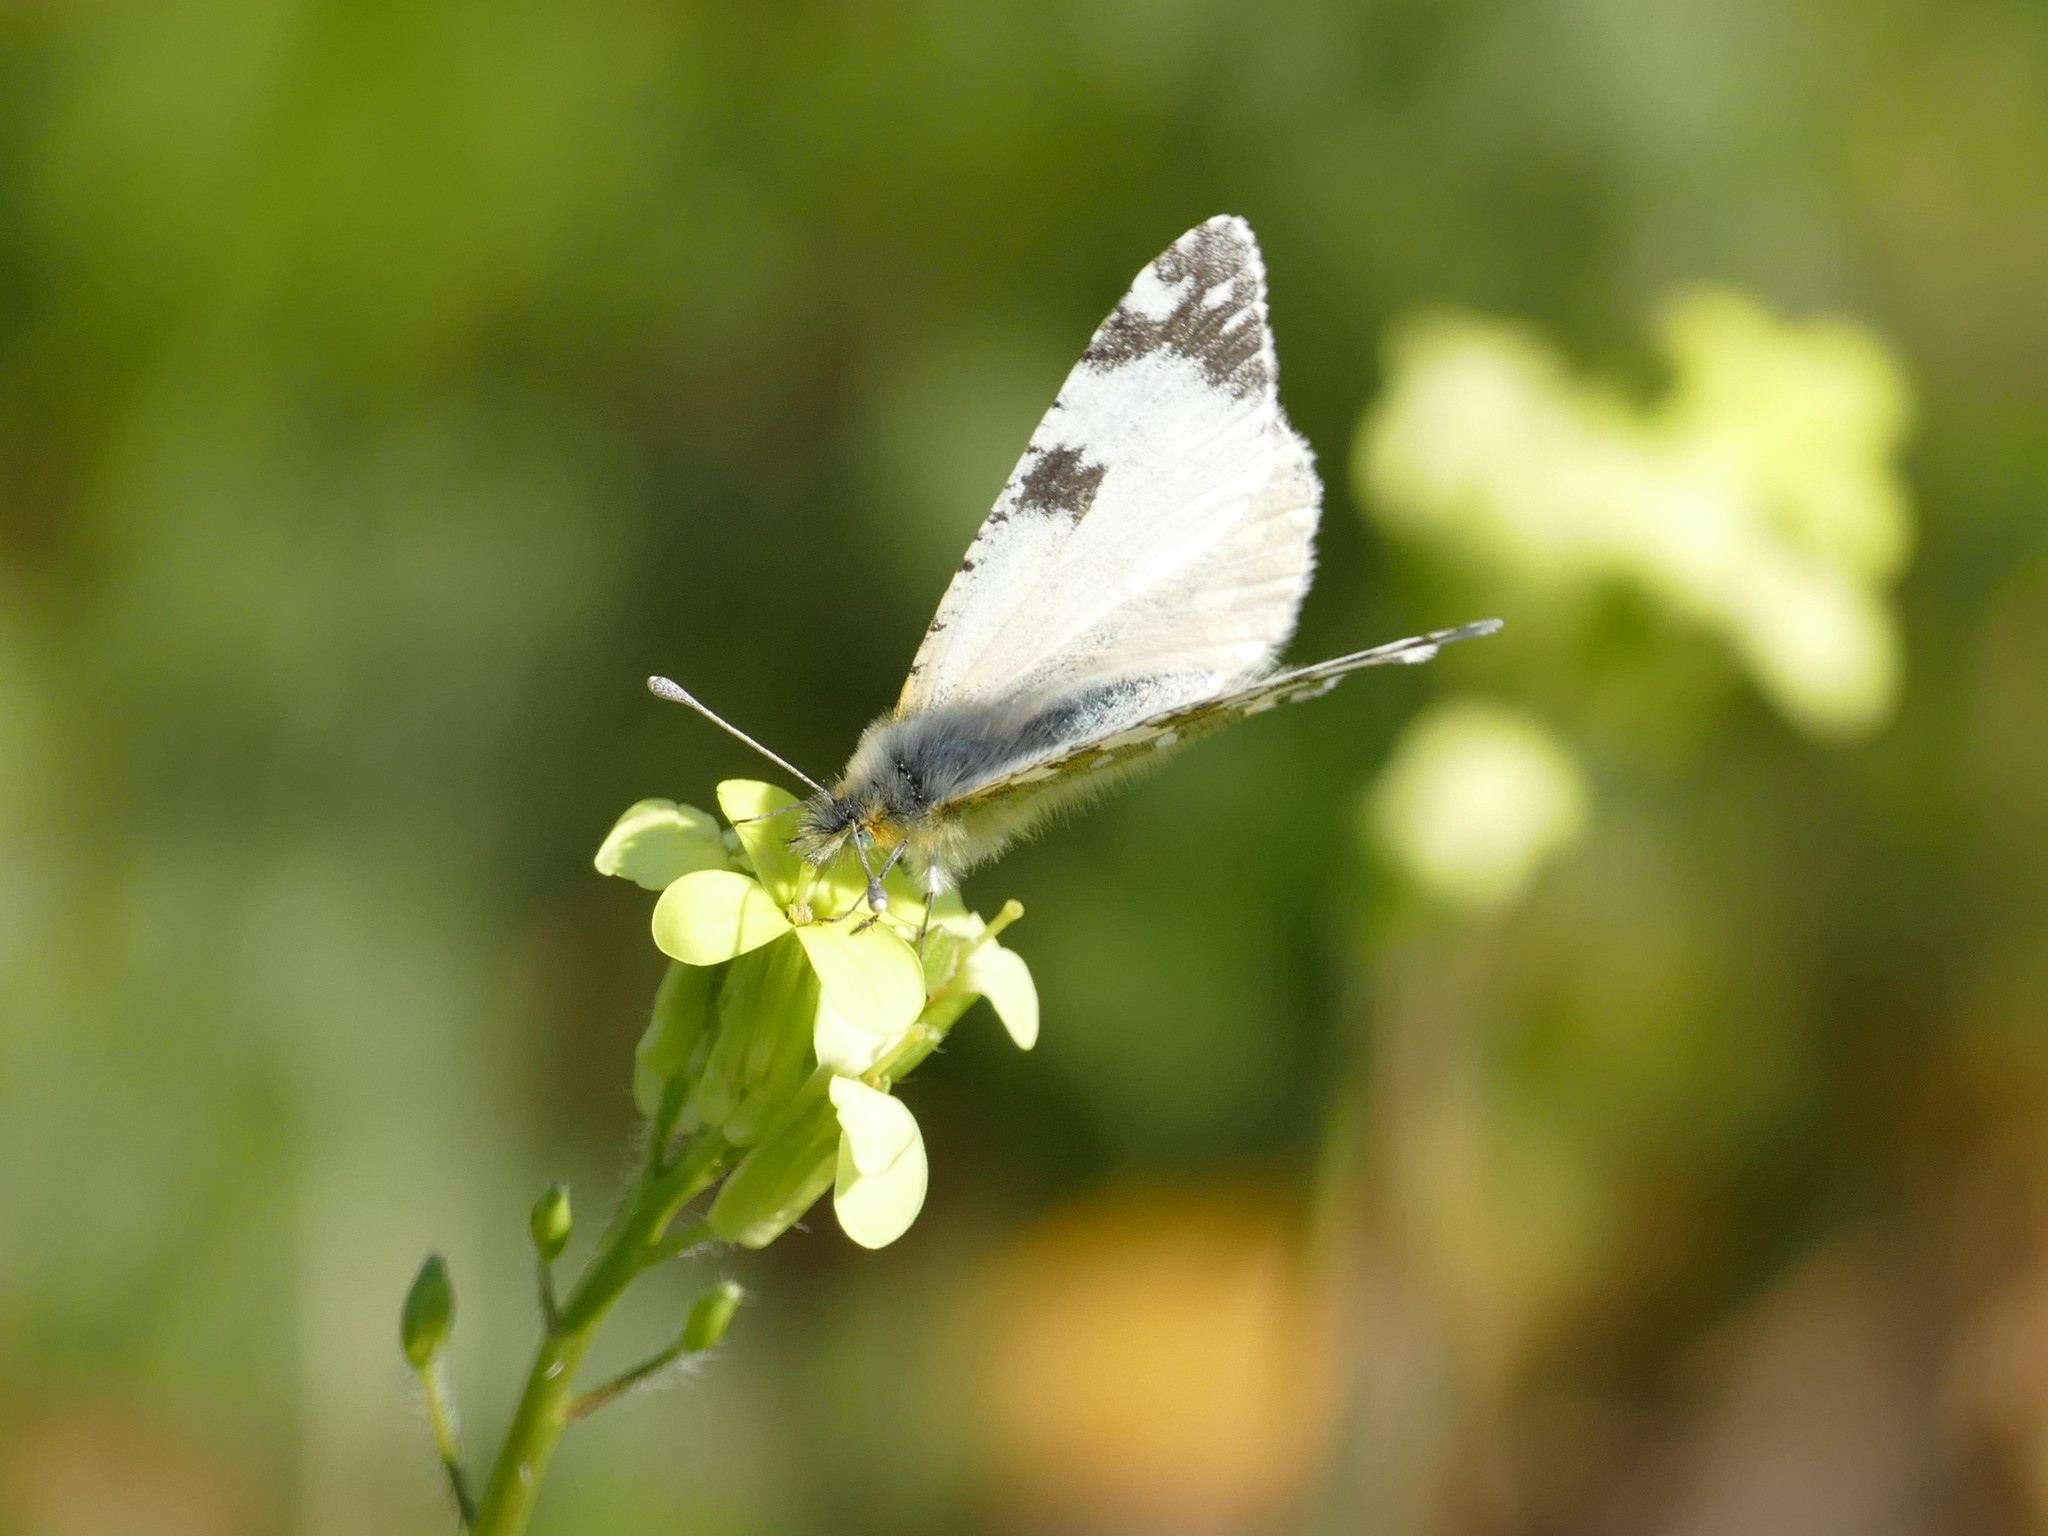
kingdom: Animalia
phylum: Arthropoda
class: Insecta
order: Lepidoptera
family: Pieridae
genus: Euchloe
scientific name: Euchloe crameri
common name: Western dappled white
